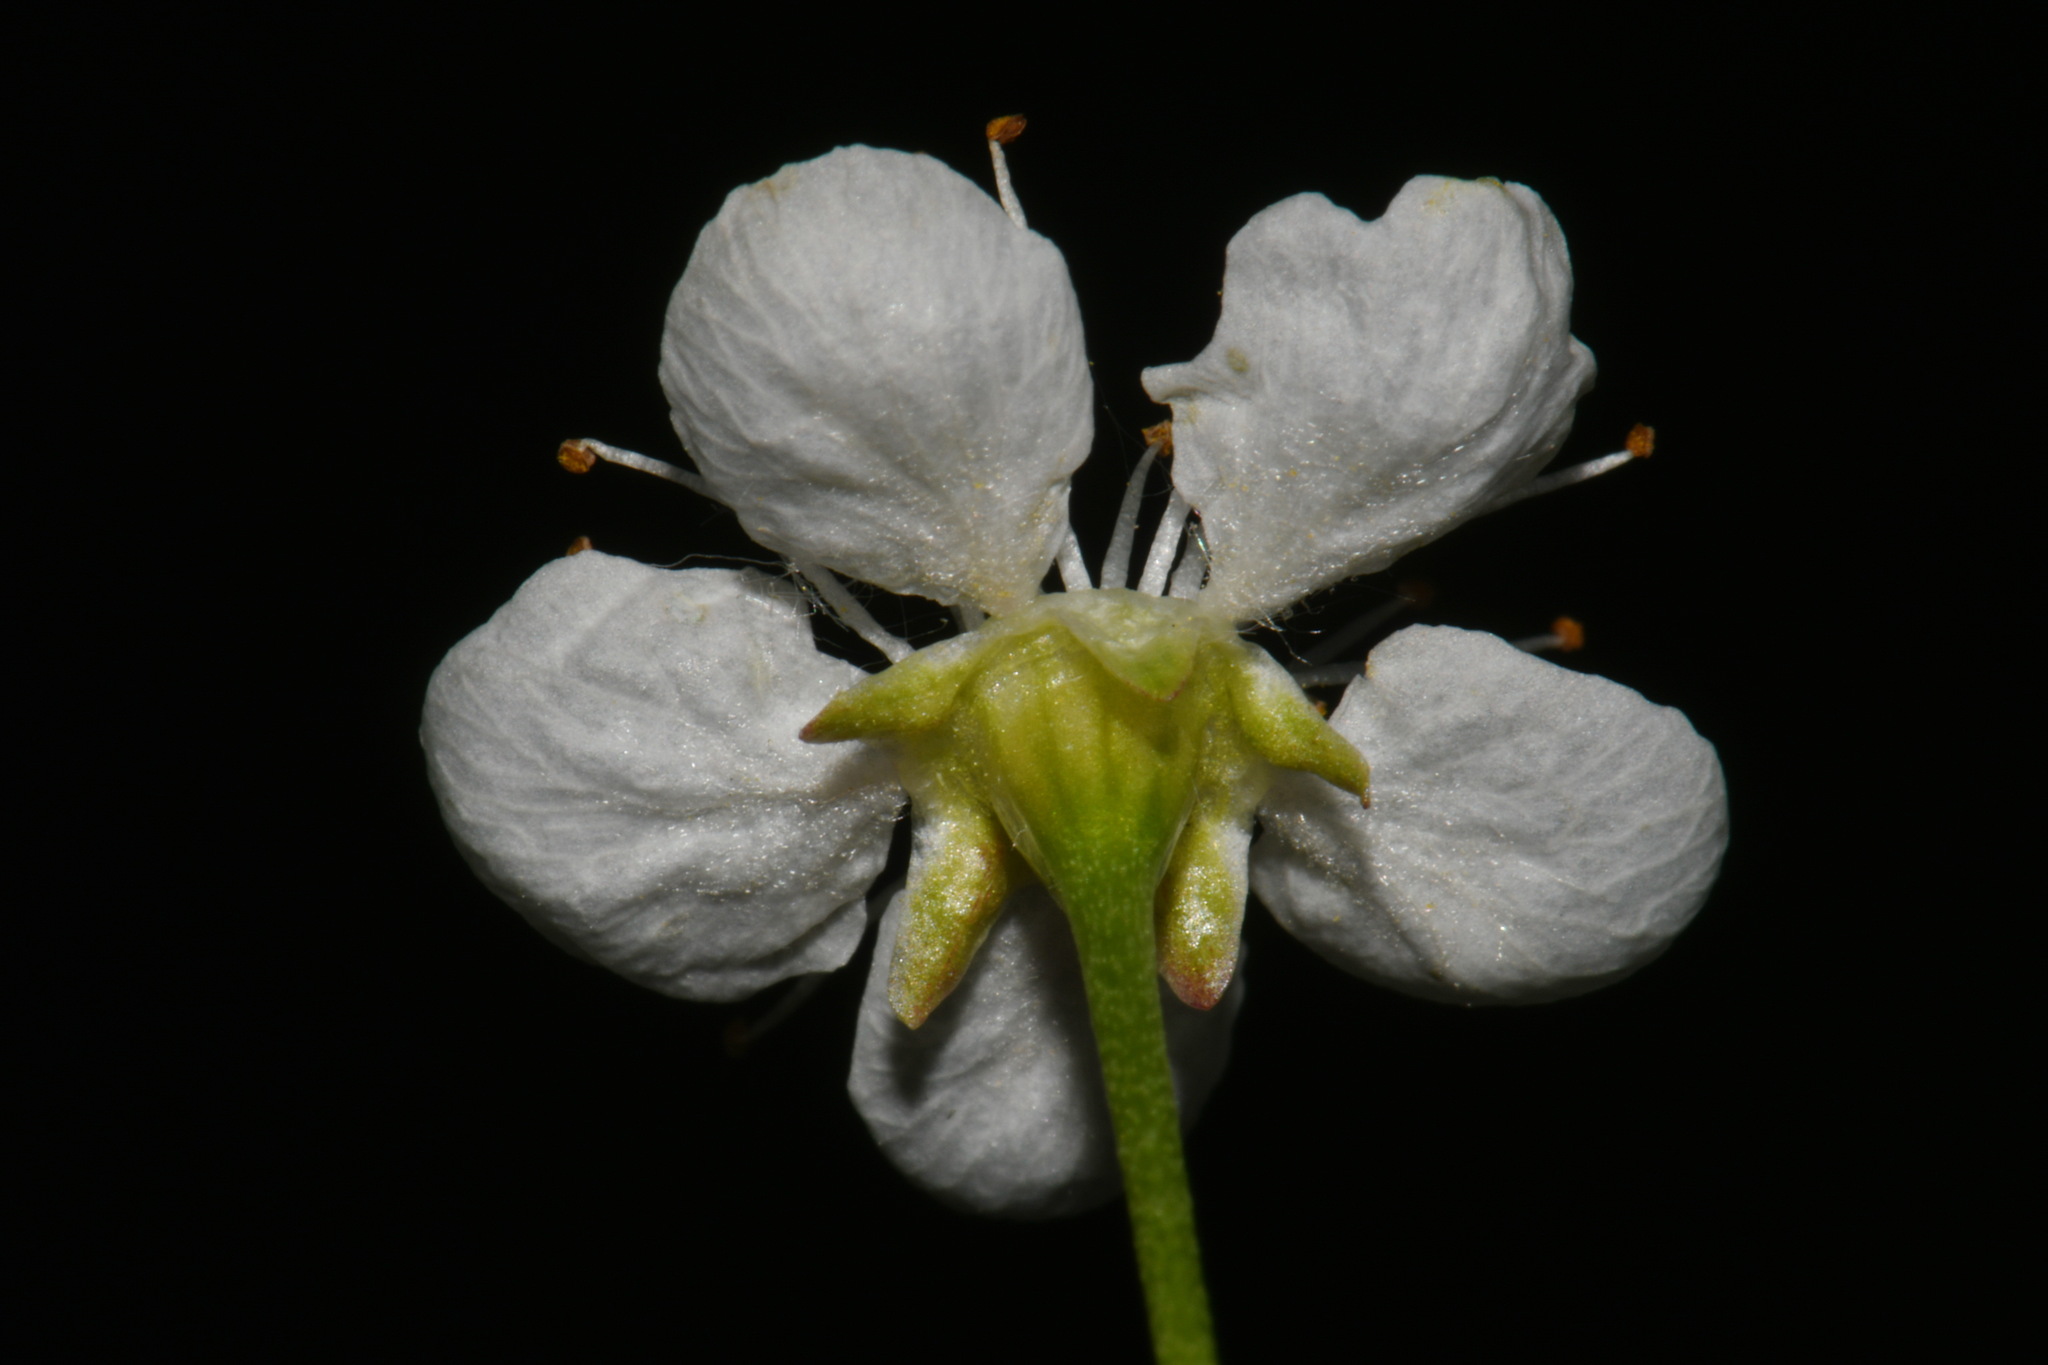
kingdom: Plantae
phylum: Tracheophyta
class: Magnoliopsida
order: Rosales
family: Rosaceae
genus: Prunus
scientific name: Prunus pensylvanica
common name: Pin cherry
